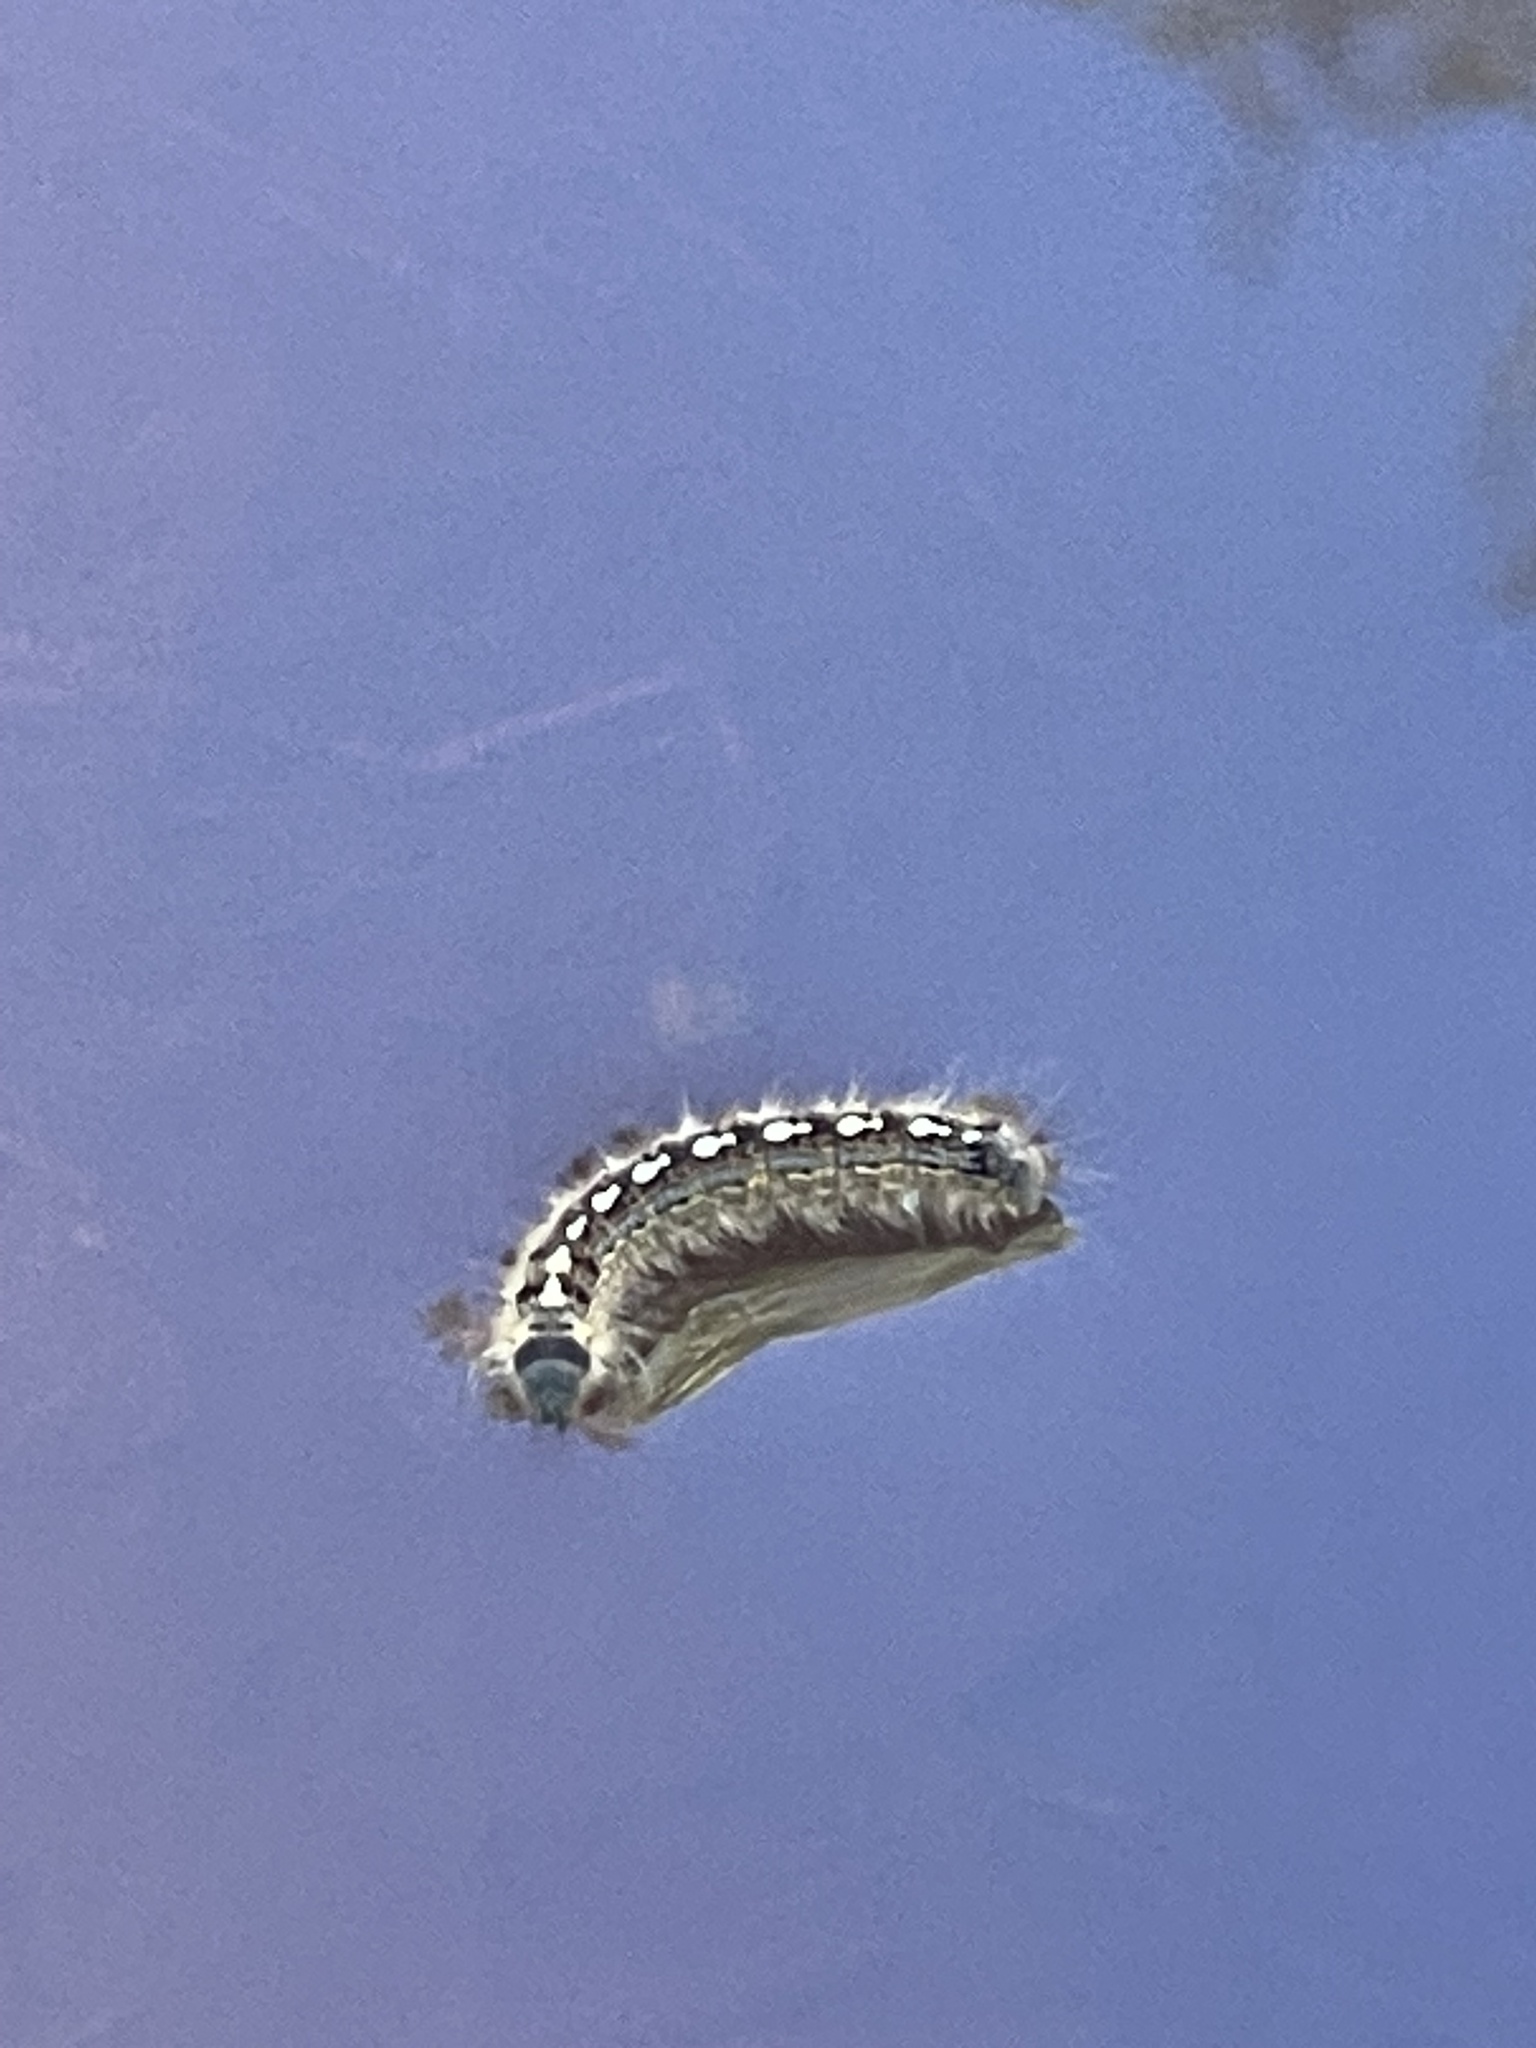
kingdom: Animalia
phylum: Arthropoda
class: Insecta
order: Lepidoptera
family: Lasiocampidae
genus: Malacosoma
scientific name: Malacosoma disstria
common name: Forest tent caterpillar
